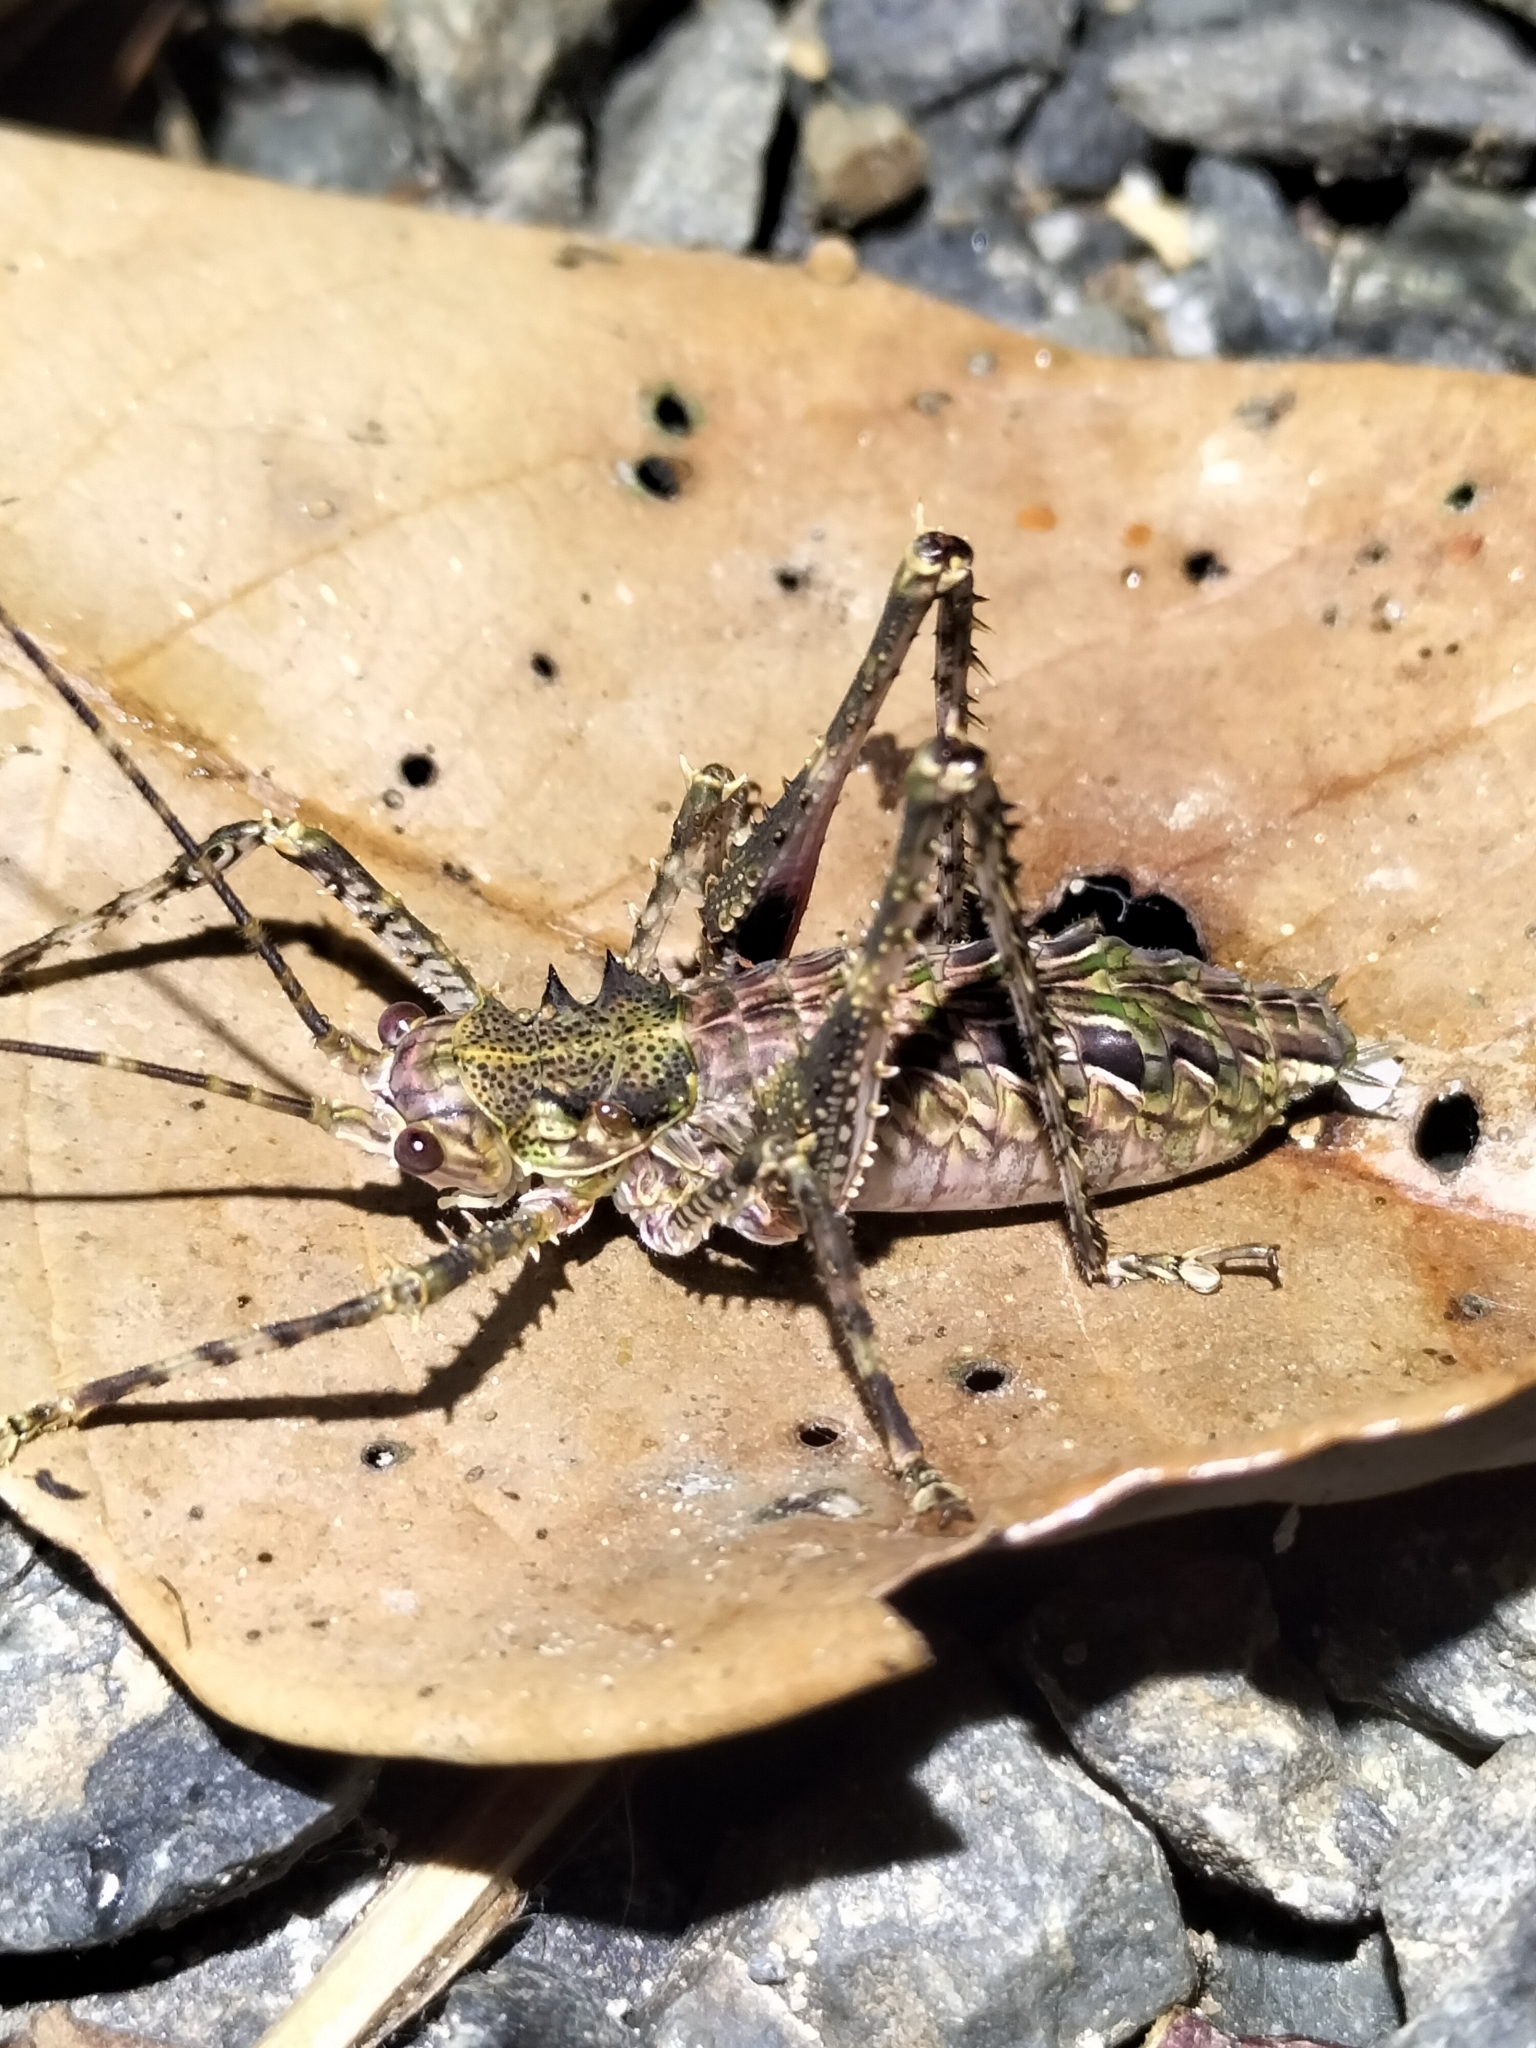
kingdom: Animalia
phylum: Arthropoda
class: Insecta
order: Orthoptera
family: Tettigoniidae
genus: Phricta
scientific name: Phricta spinosa
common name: Giant spiny forest katydid
